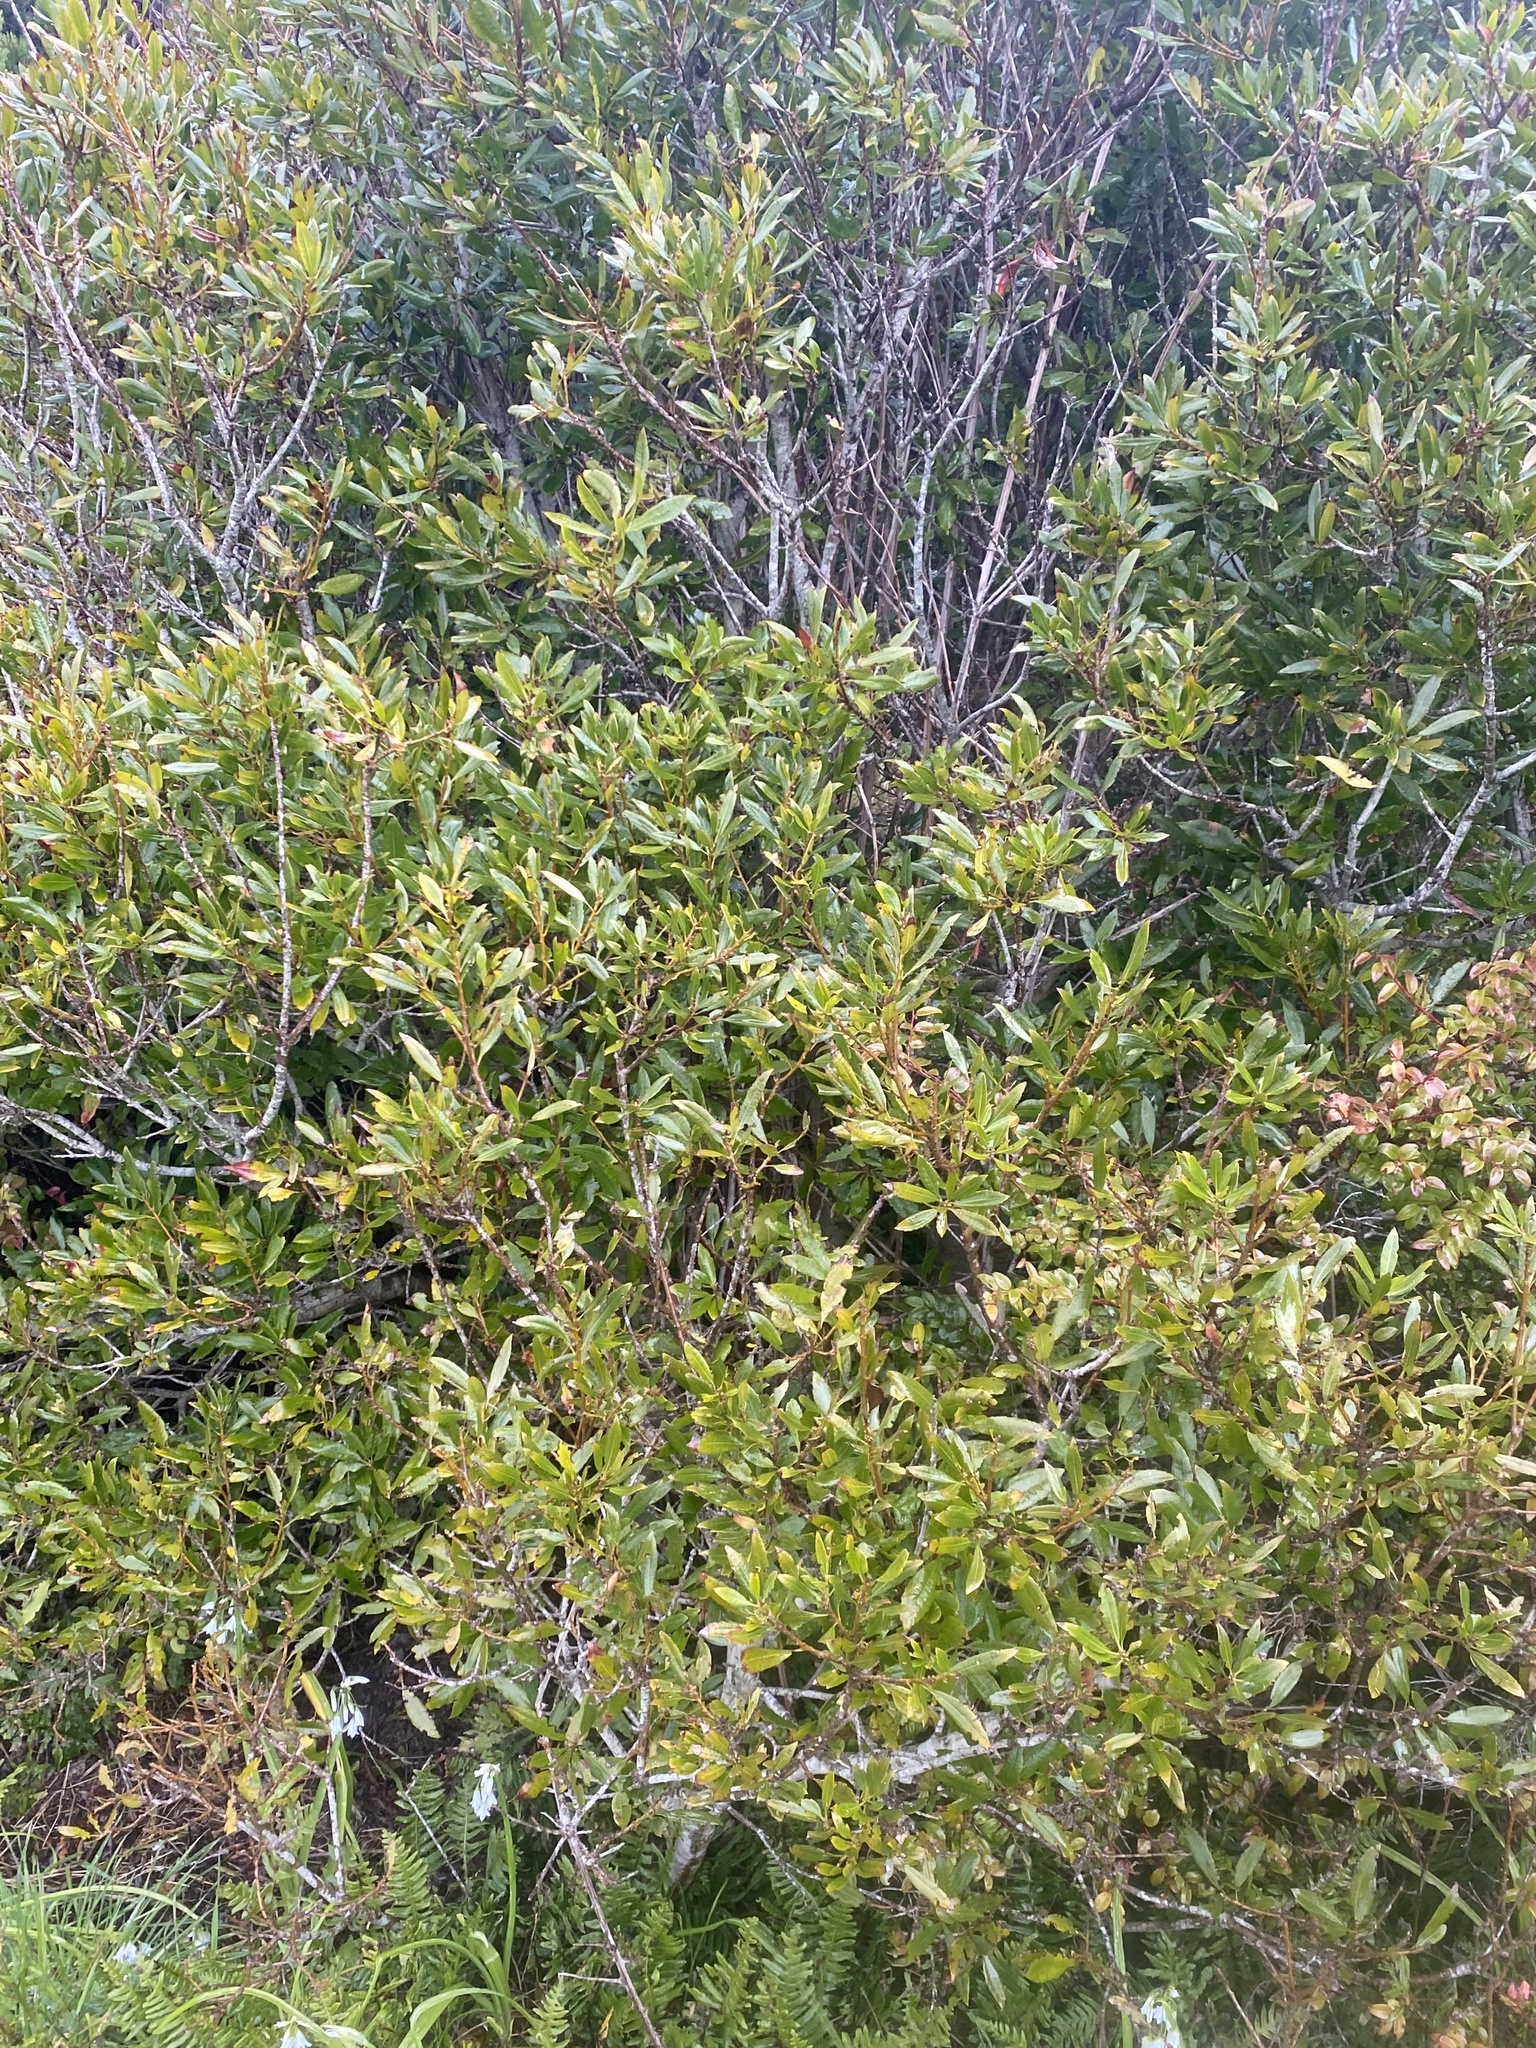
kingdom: Plantae
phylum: Tracheophyta
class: Magnoliopsida
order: Fagales
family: Myricaceae
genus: Morella
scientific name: Morella californica
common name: California wax-myrtle
